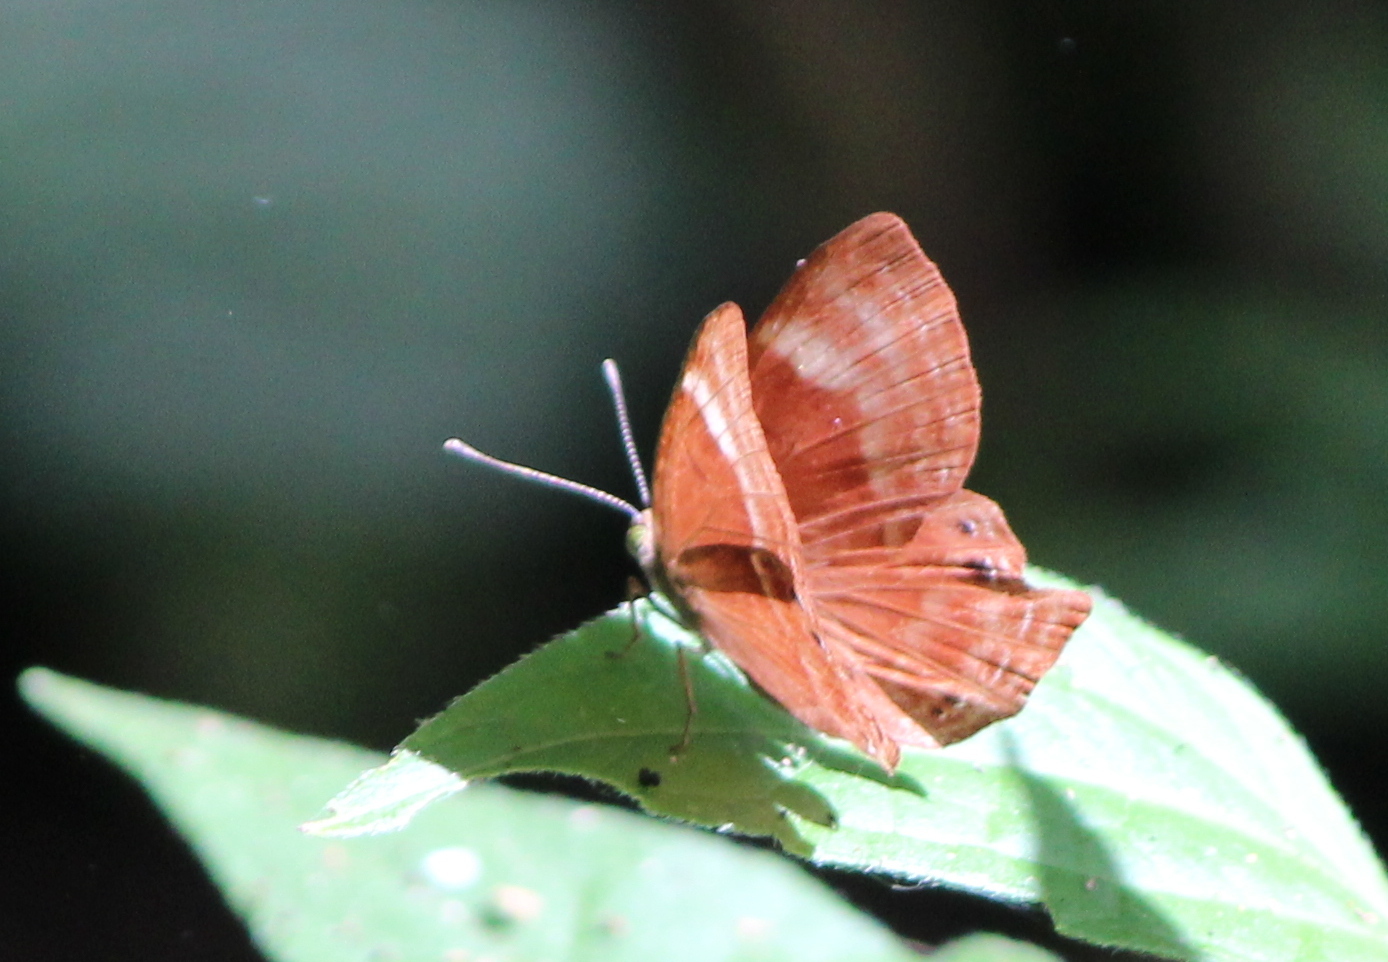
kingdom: Animalia
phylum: Arthropoda
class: Insecta
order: Lepidoptera
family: Lycaenidae
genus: Abisara
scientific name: Abisara bifasciata
